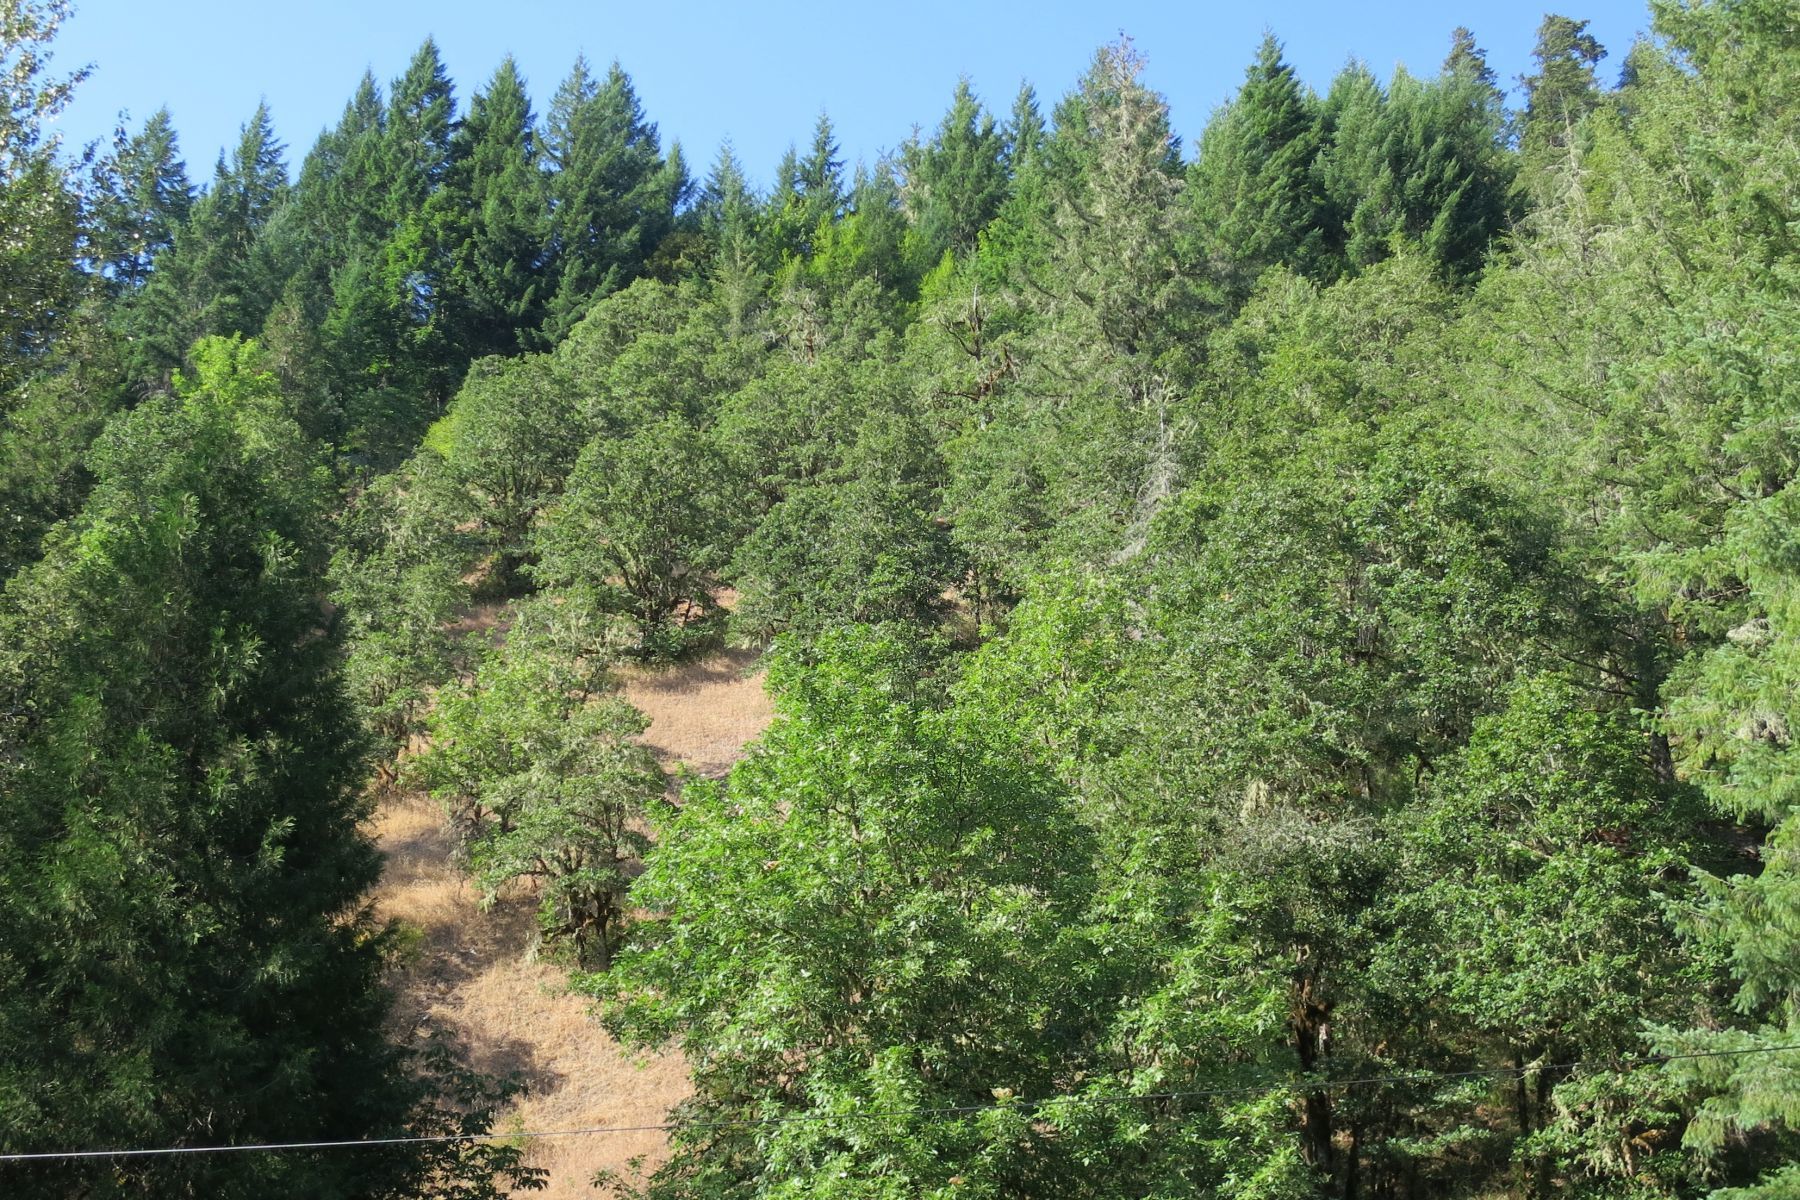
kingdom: Plantae
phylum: Tracheophyta
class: Magnoliopsida
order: Fagales
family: Fagaceae
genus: Quercus
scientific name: Quercus garryana
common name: Garry oak
